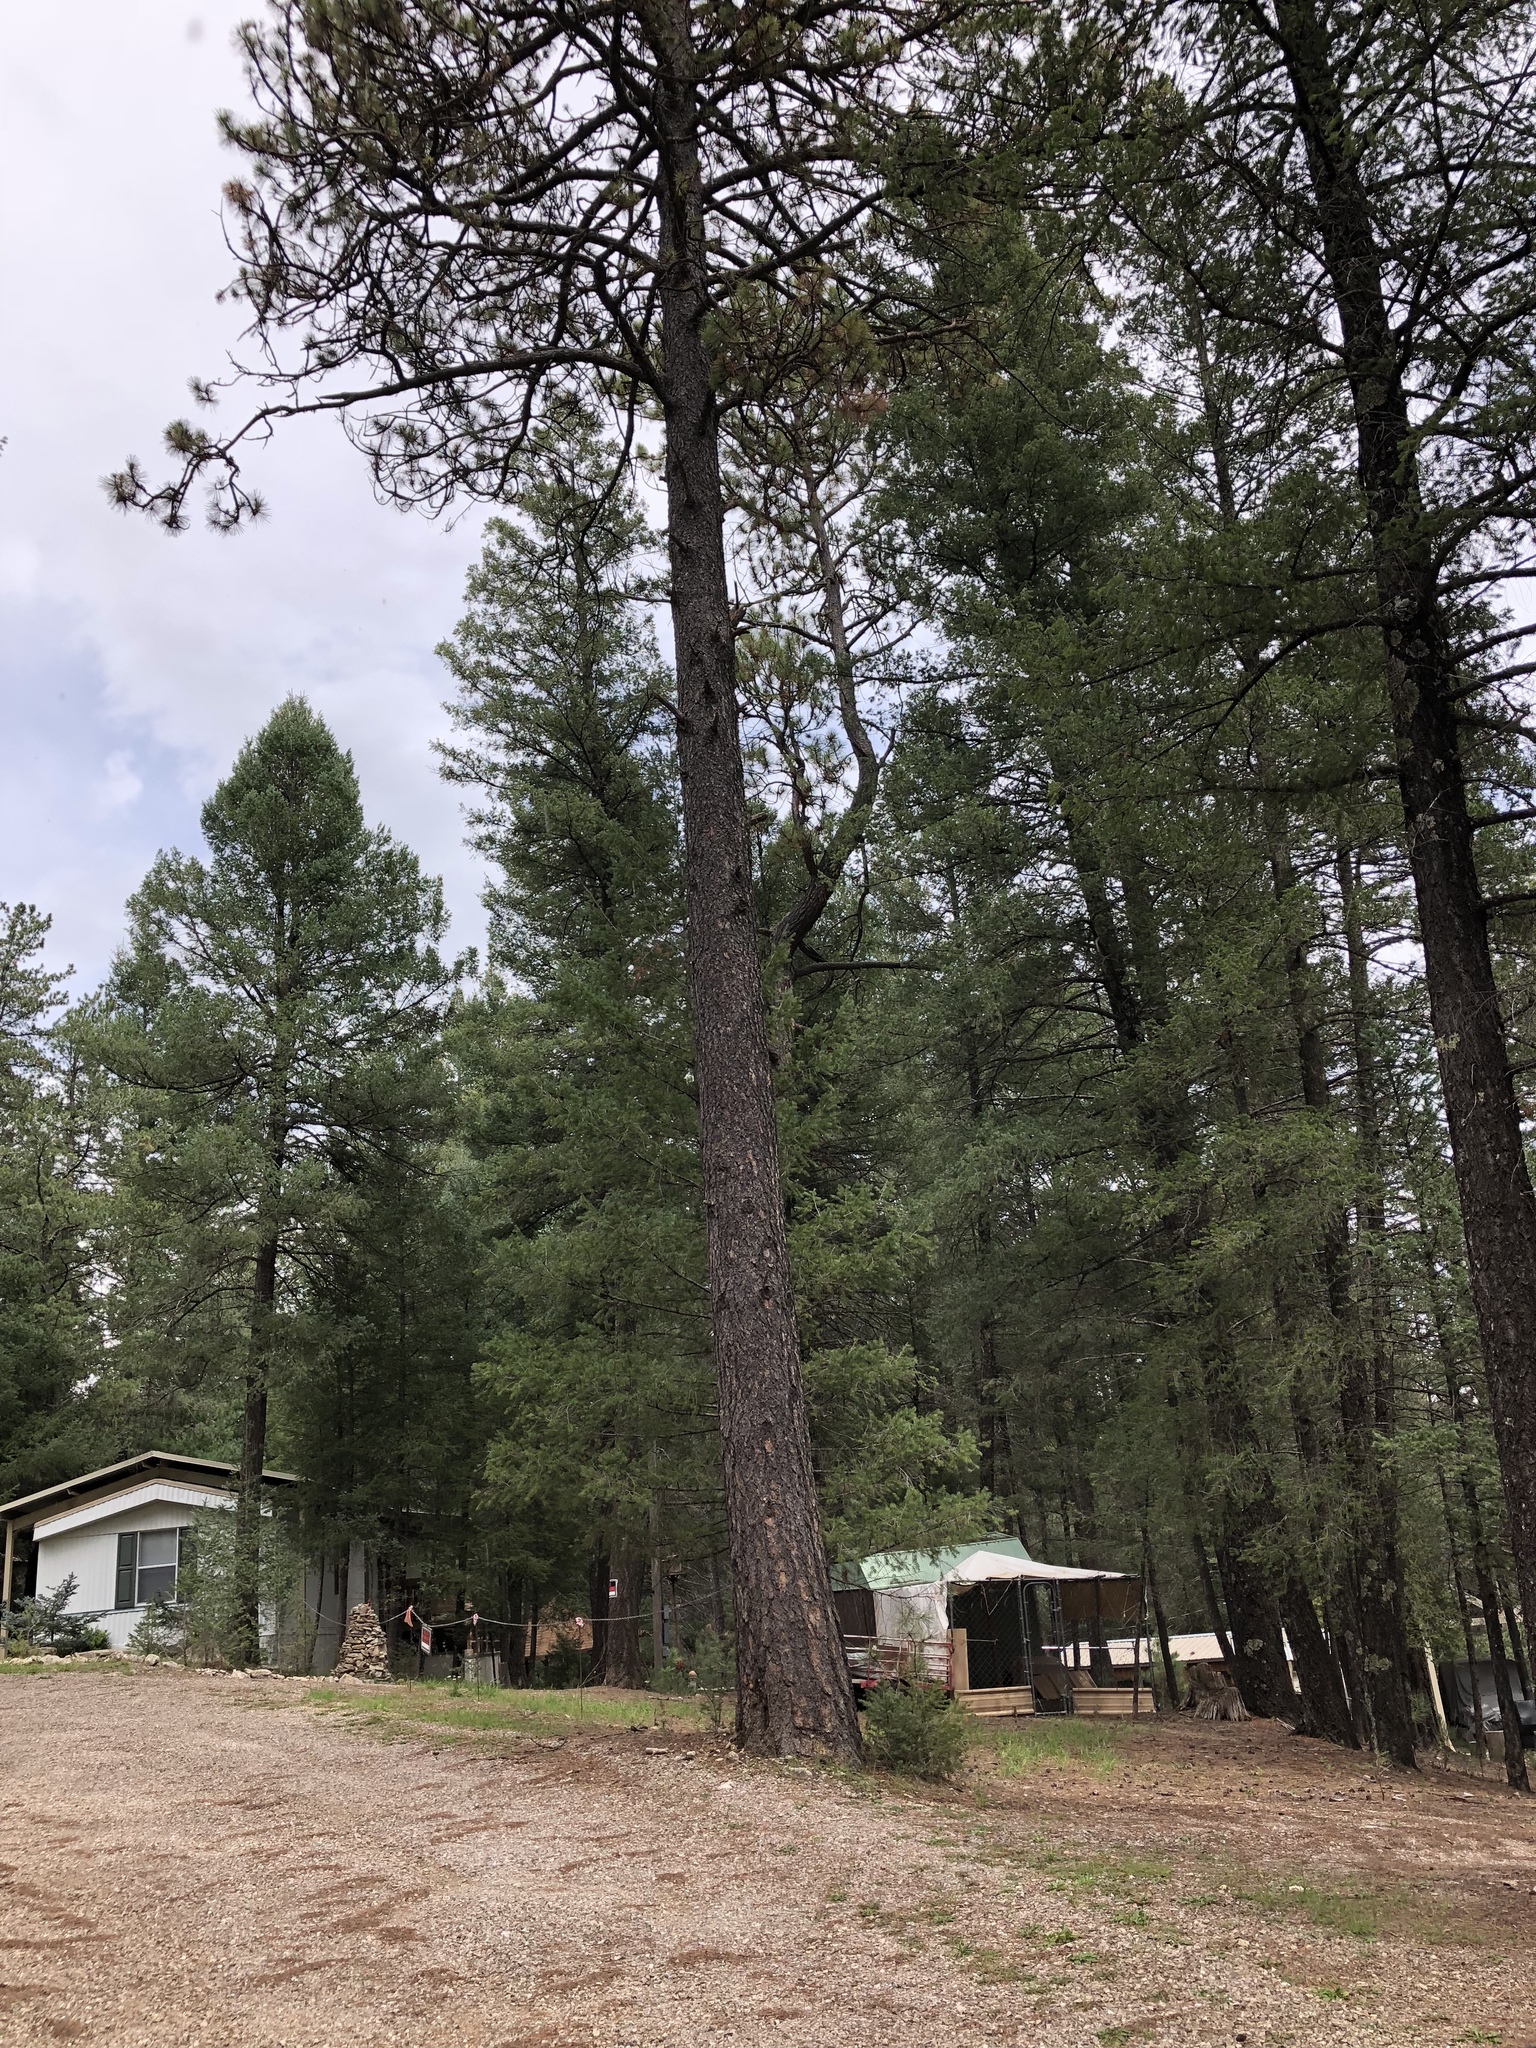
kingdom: Plantae
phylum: Tracheophyta
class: Pinopsida
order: Pinales
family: Pinaceae
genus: Pinus
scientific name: Pinus ponderosa
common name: Western yellow-pine
